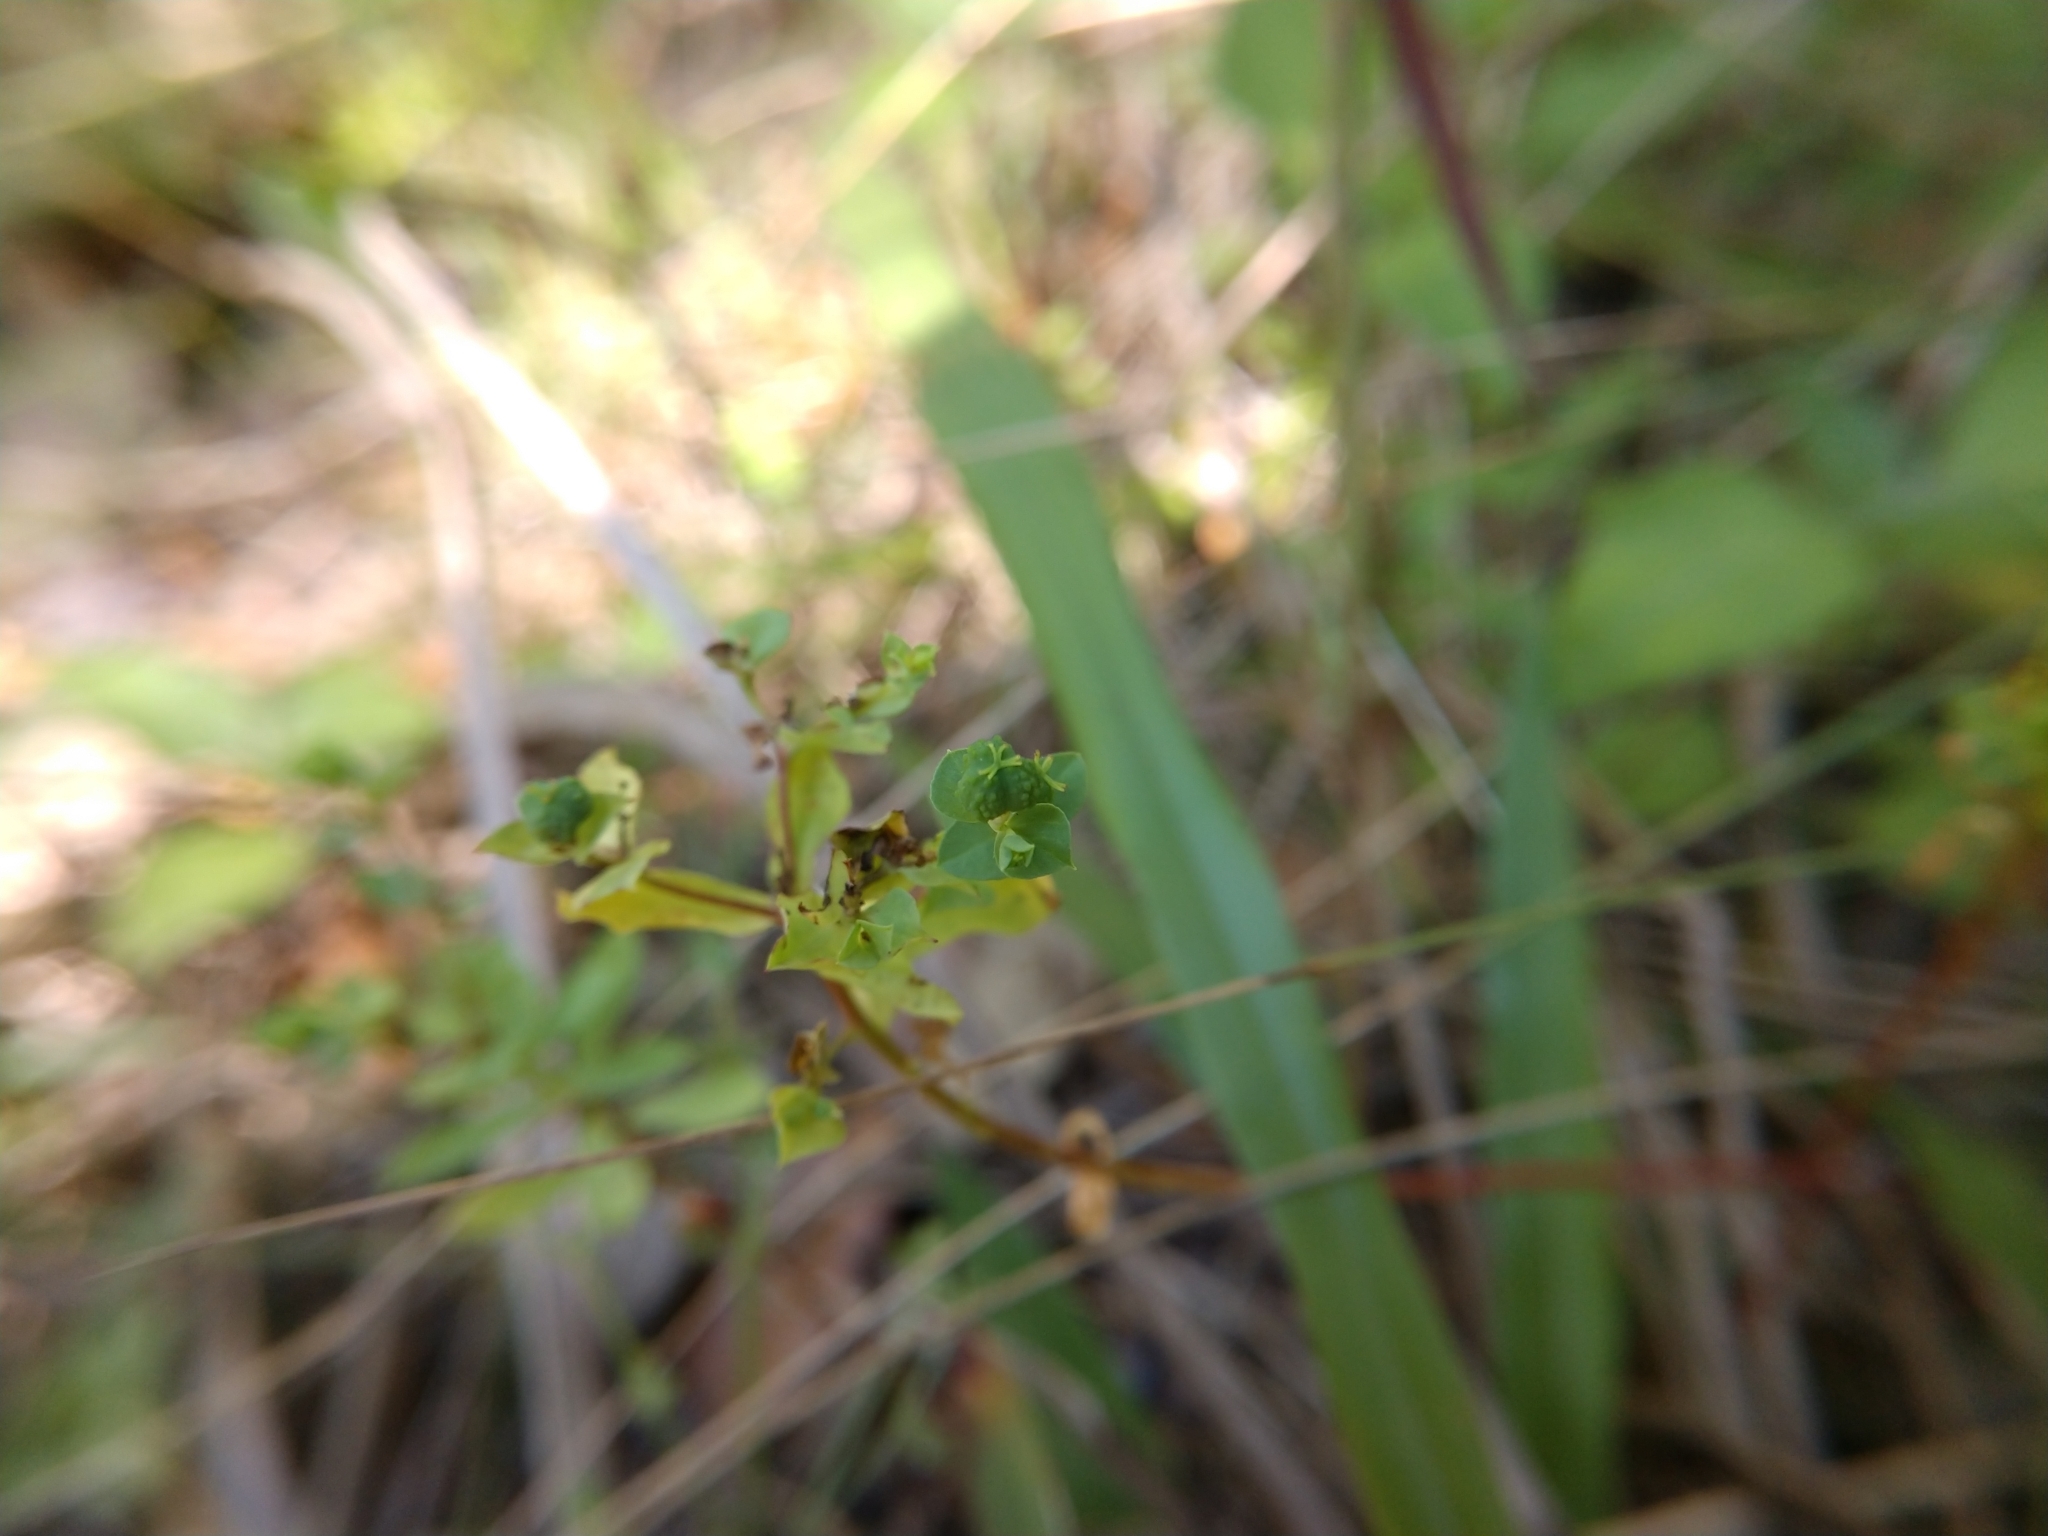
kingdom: Plantae
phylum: Tracheophyta
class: Magnoliopsida
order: Malpighiales
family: Euphorbiaceae
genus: Euphorbia
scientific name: Euphorbia spathulata
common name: Blunt spurge
